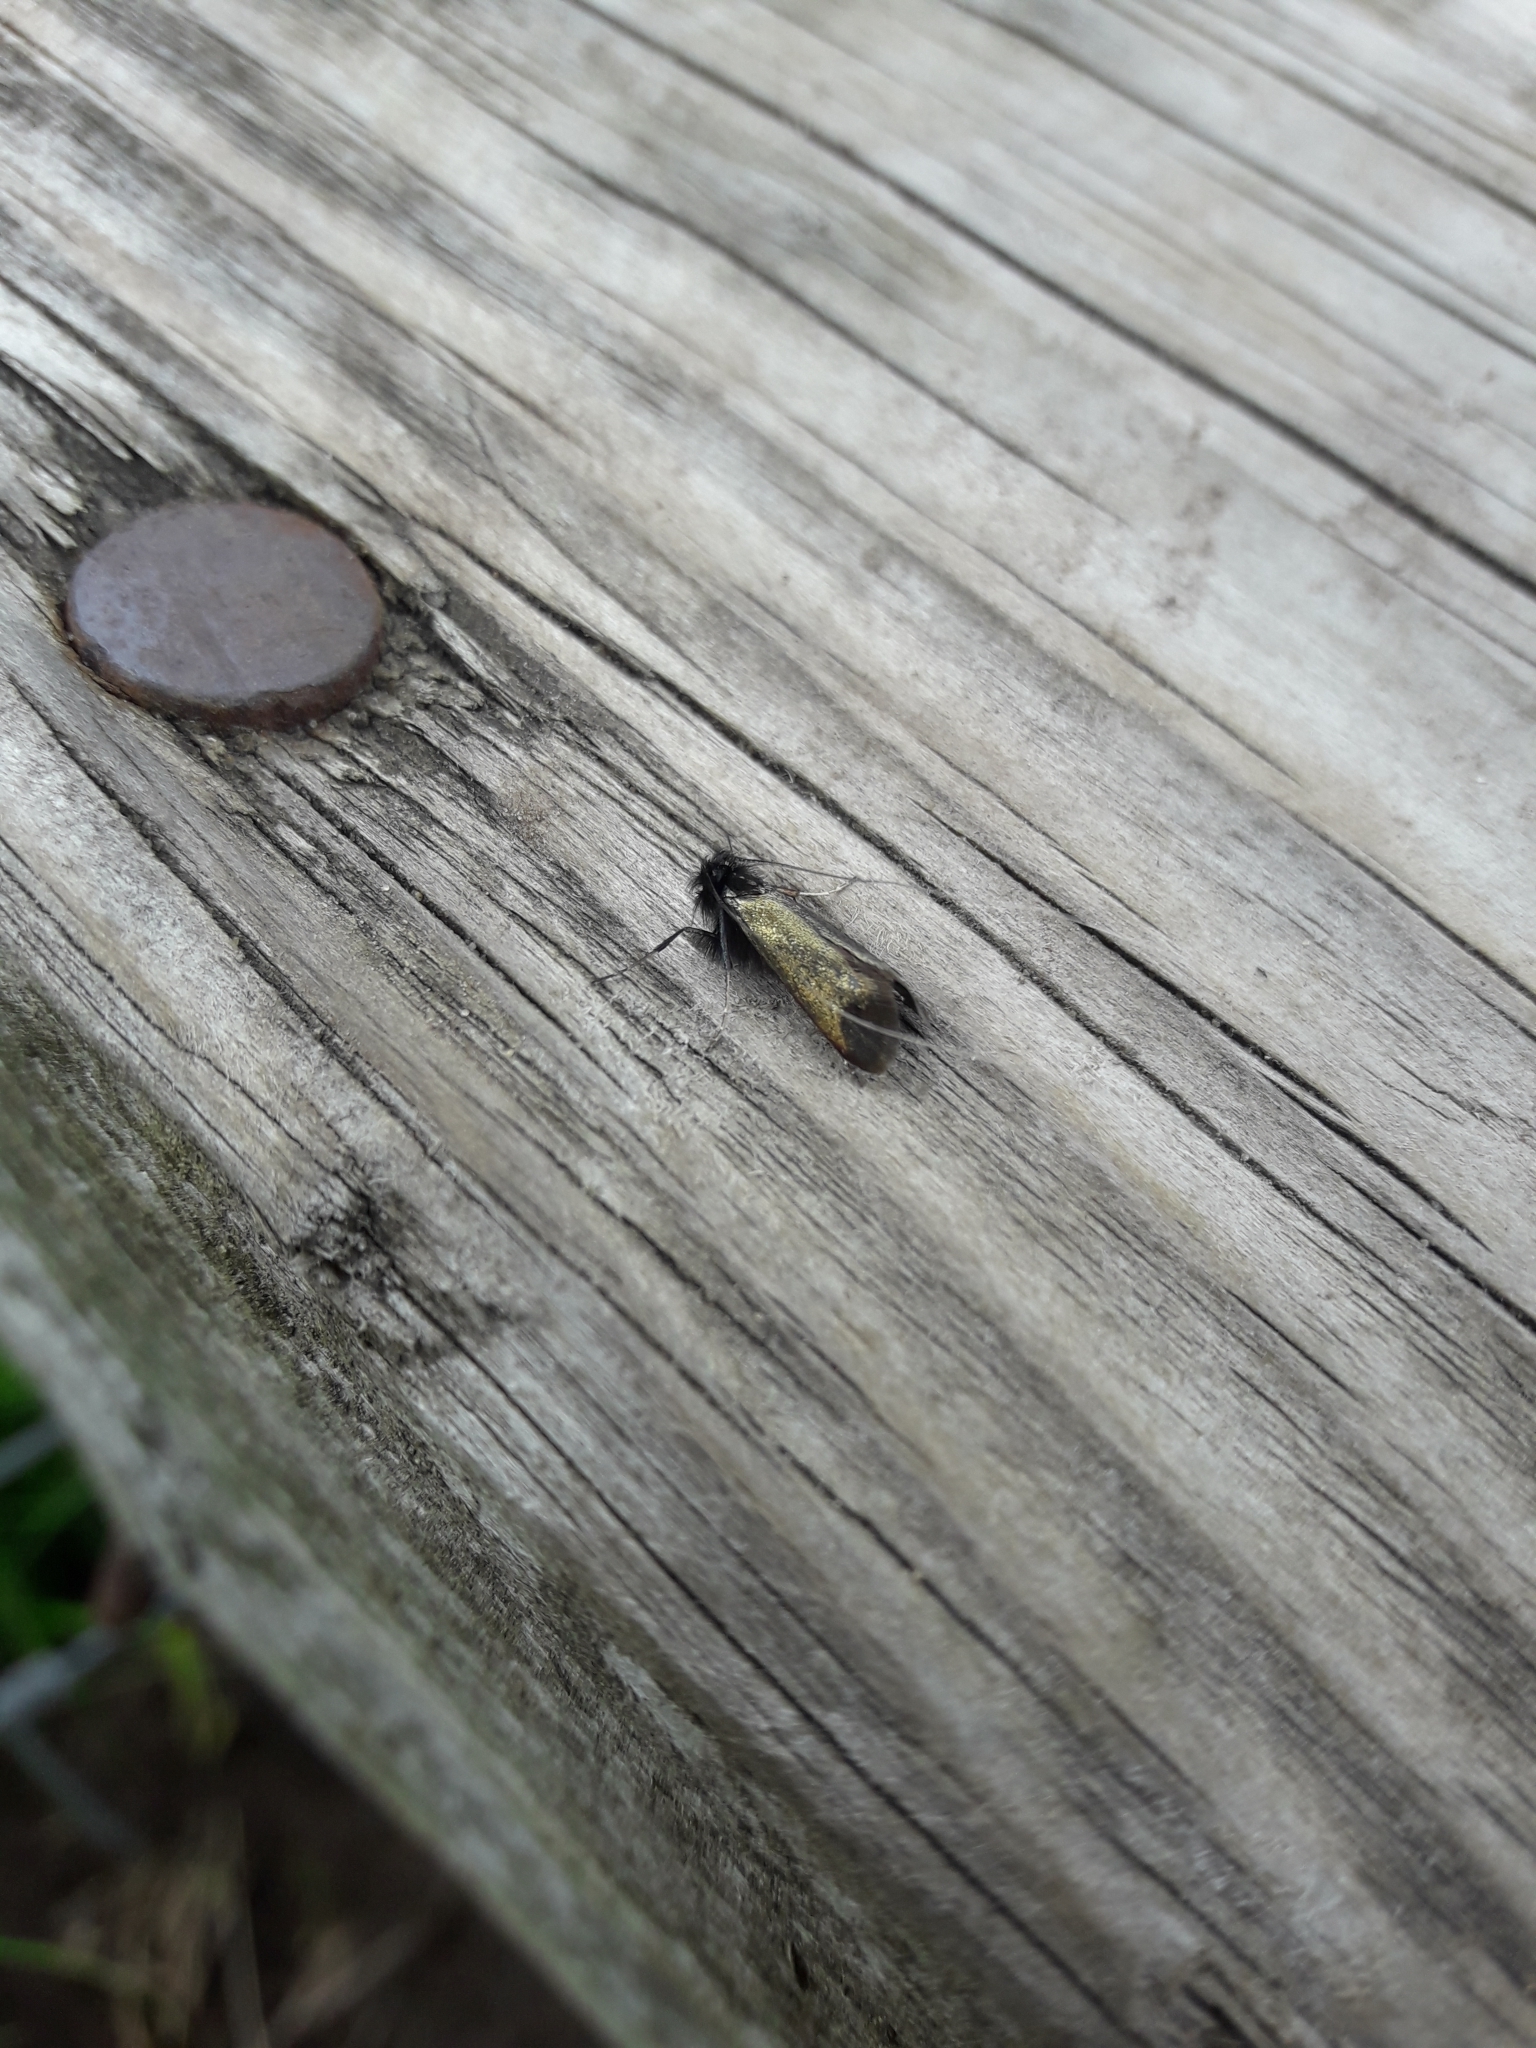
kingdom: Animalia
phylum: Arthropoda
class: Insecta
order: Lepidoptera
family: Adelidae
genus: Adela
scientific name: Adela viridella
